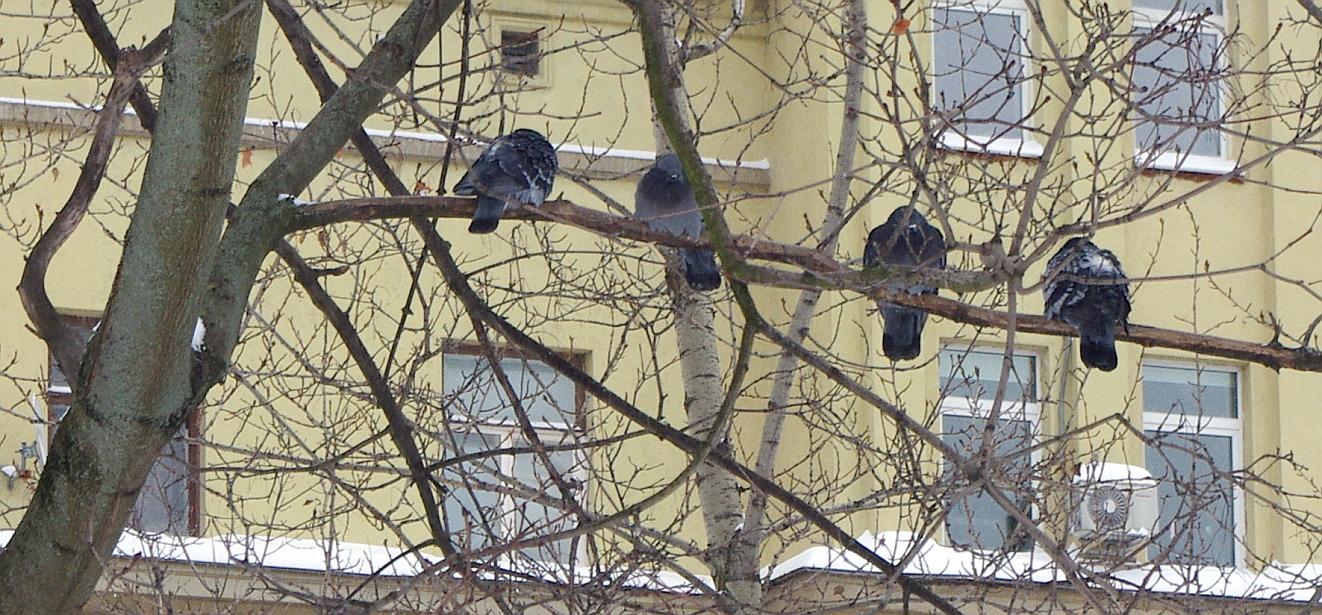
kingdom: Animalia
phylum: Chordata
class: Aves
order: Columbiformes
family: Columbidae
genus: Columba
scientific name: Columba livia
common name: Rock pigeon
